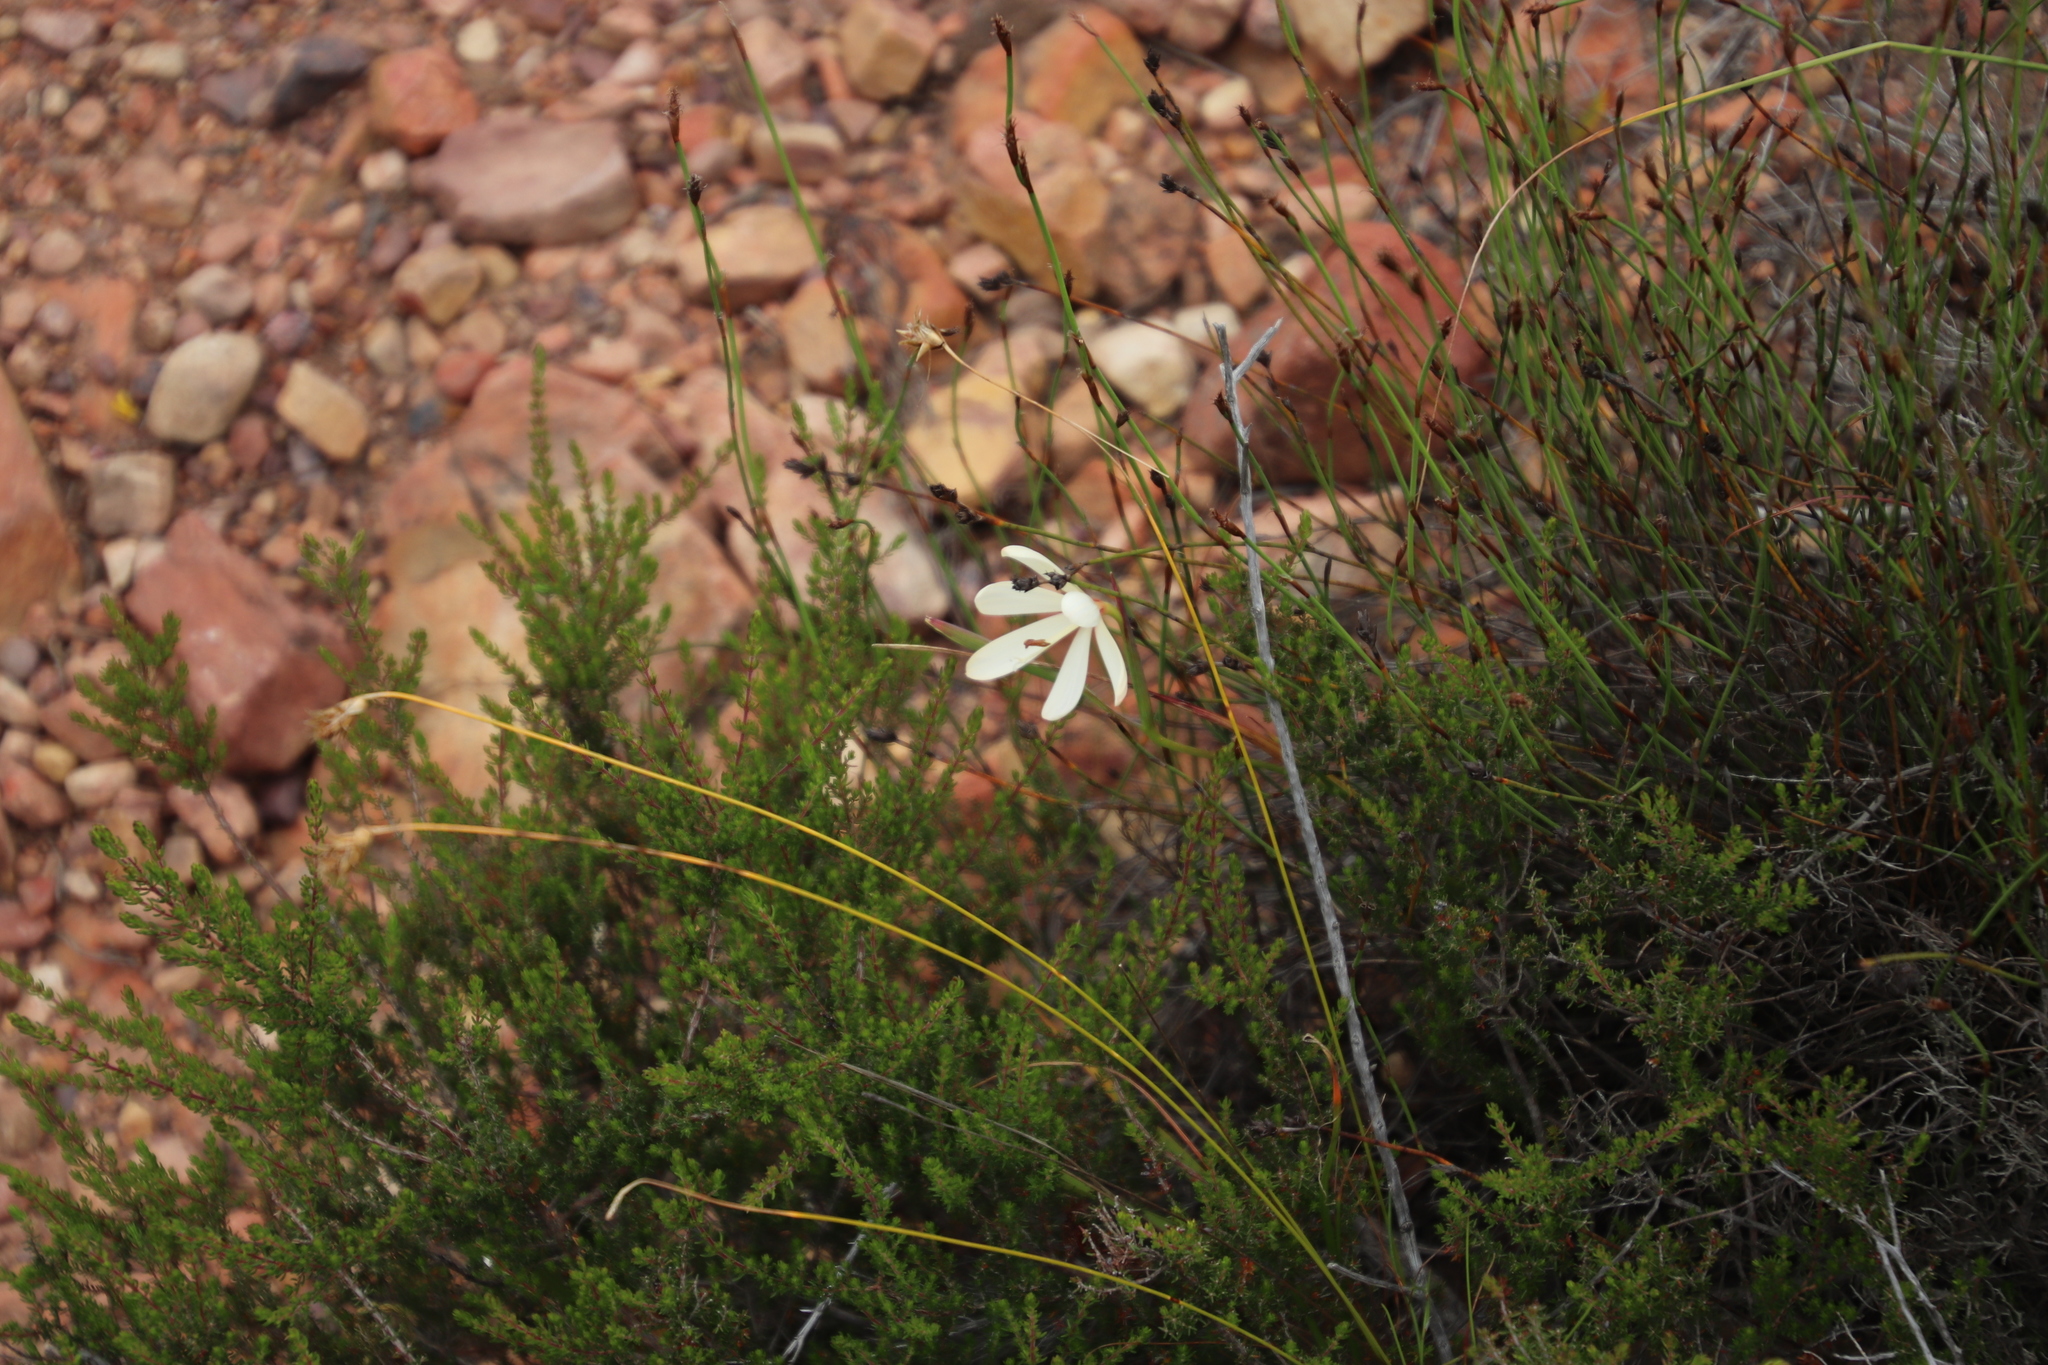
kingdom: Plantae
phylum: Tracheophyta
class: Liliopsida
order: Asparagales
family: Iridaceae
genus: Geissorhiza
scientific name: Geissorhiza schinzii
